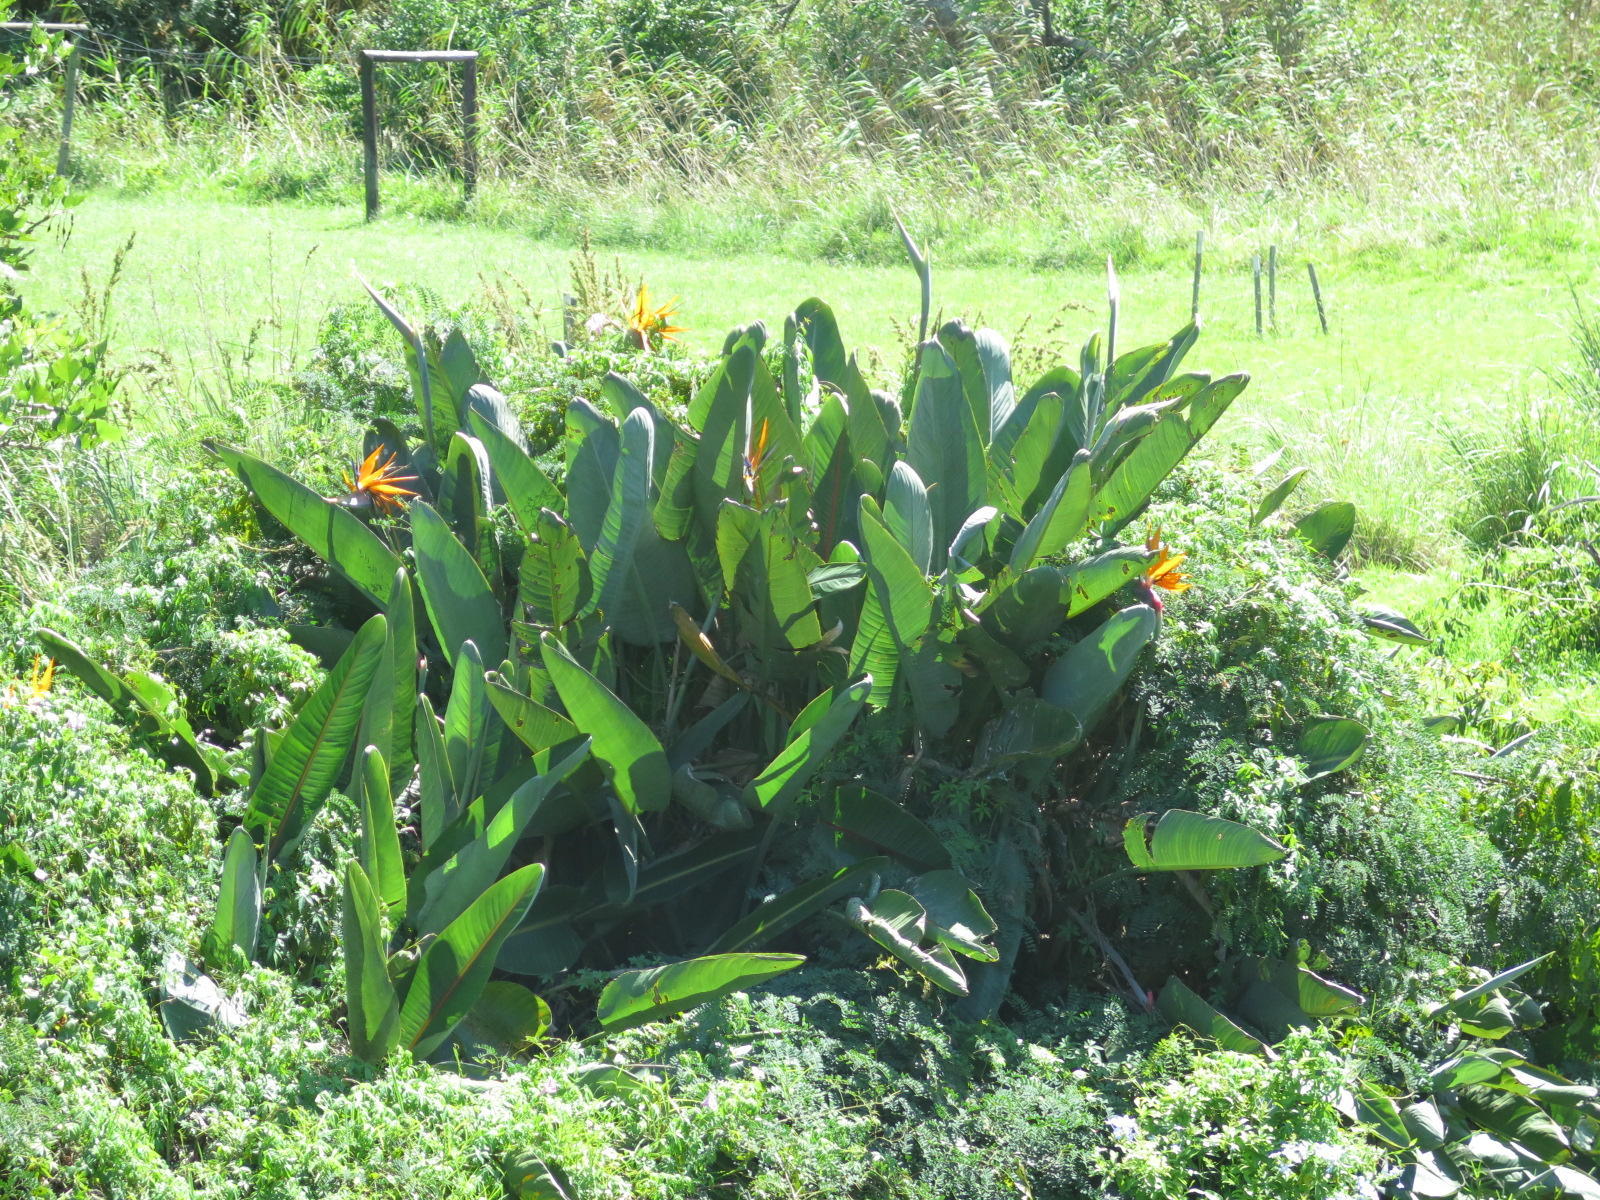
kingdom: Plantae
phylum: Tracheophyta
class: Liliopsida
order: Zingiberales
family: Strelitziaceae
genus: Strelitzia
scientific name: Strelitzia reginae
